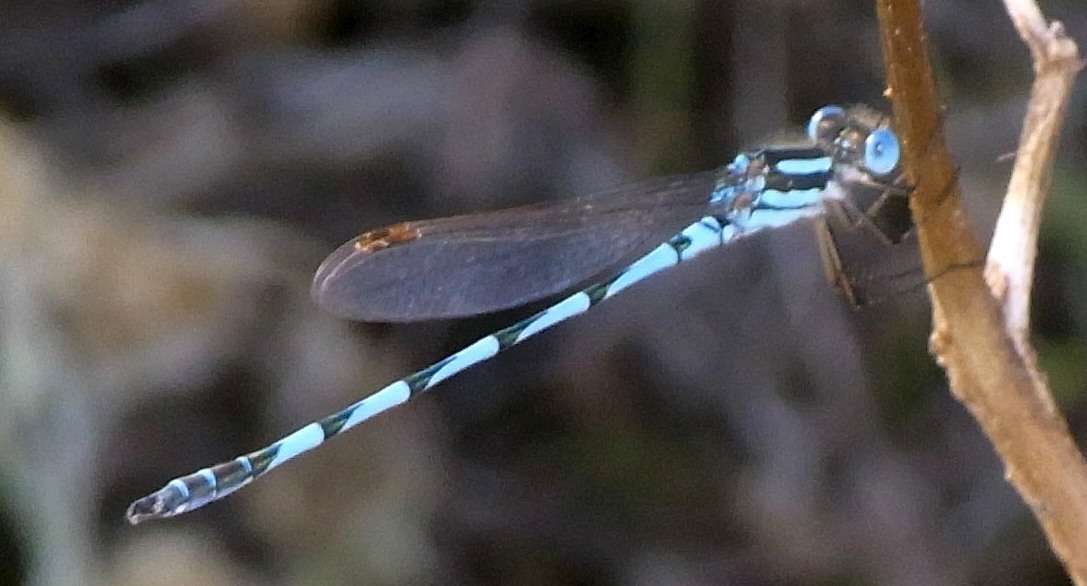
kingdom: Animalia
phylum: Arthropoda
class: Insecta
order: Odonata
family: Lestidae
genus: Austrolestes
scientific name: Austrolestes annulosus
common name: Blue ringtail
